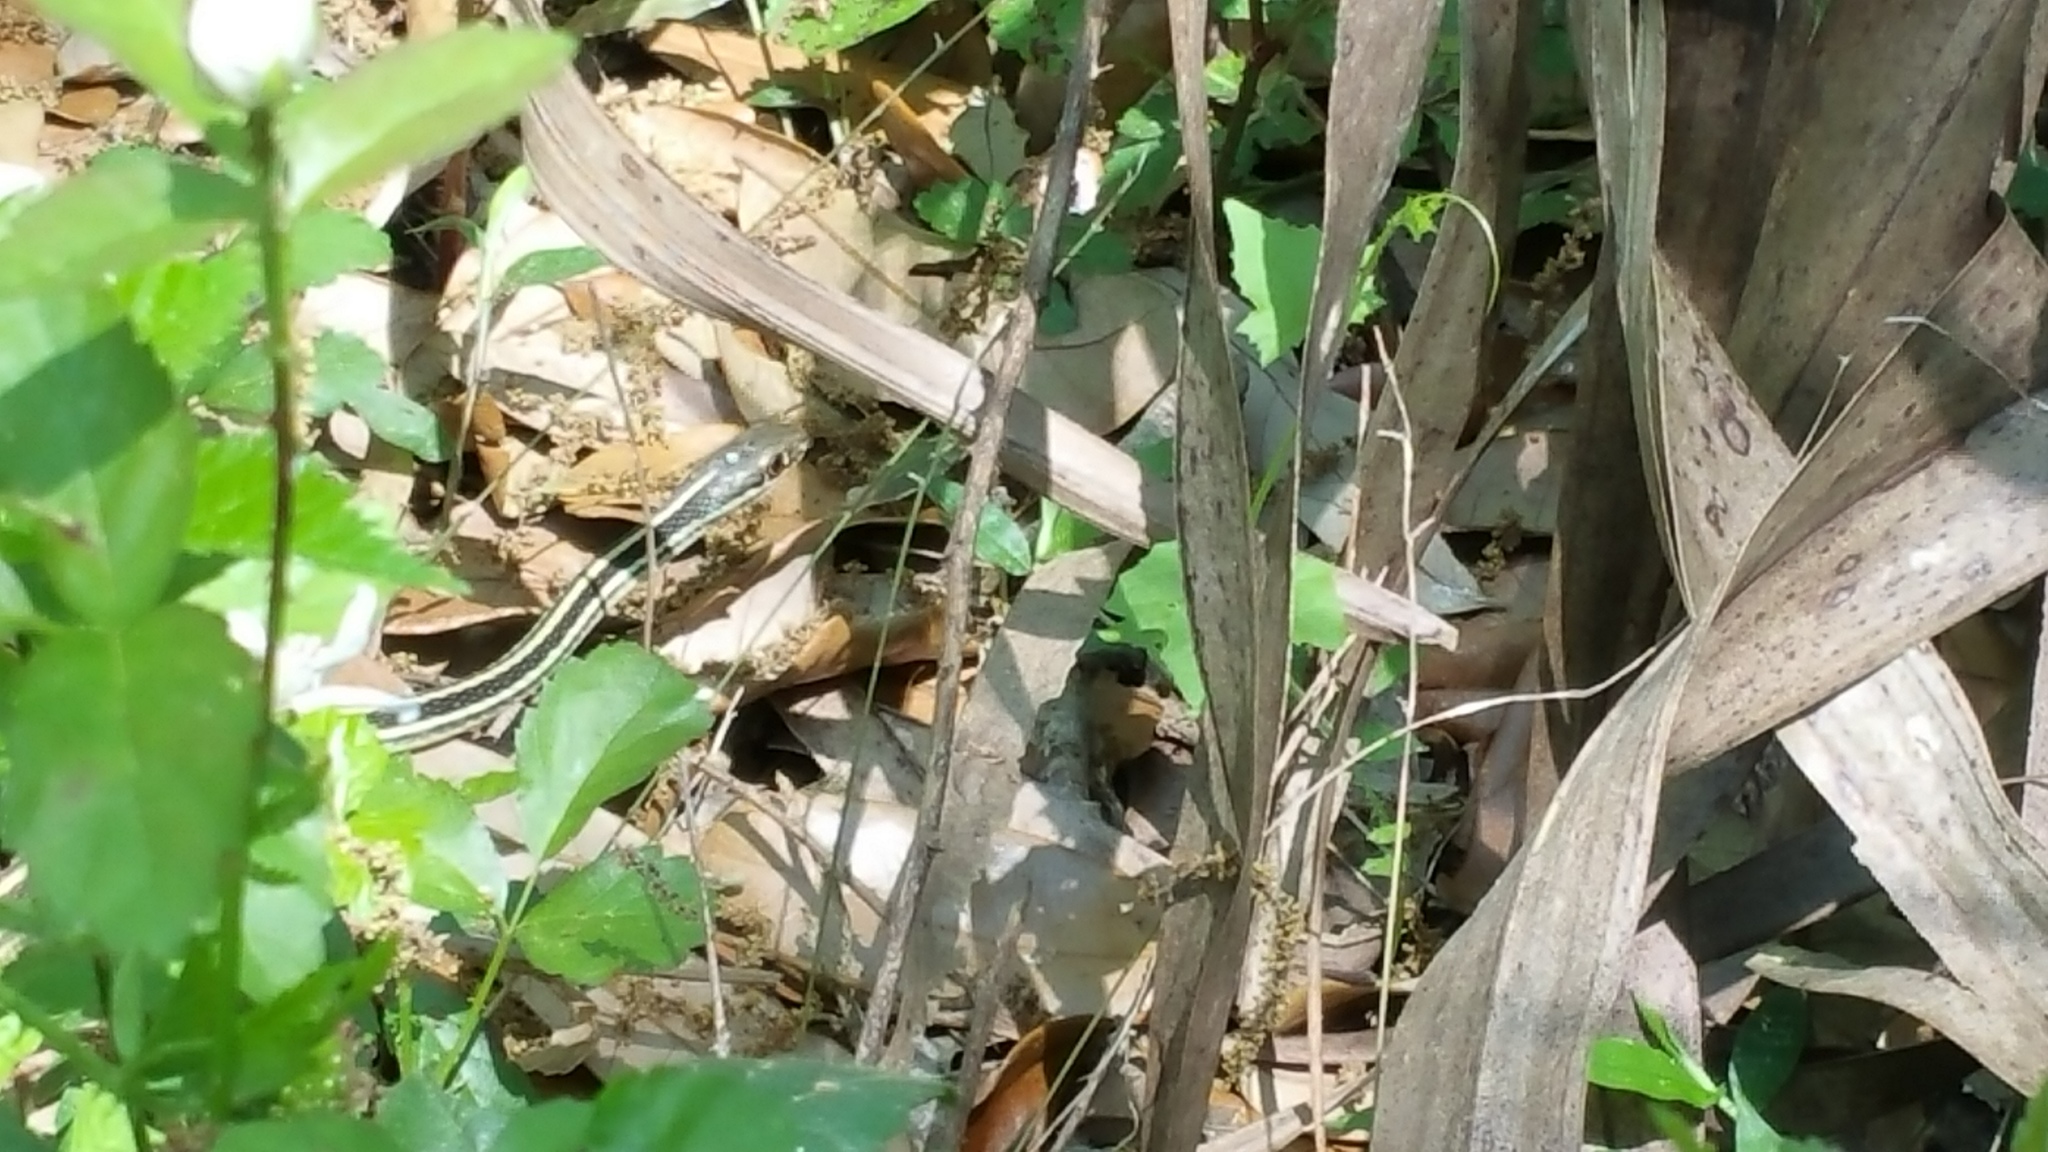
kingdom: Animalia
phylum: Chordata
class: Squamata
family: Colubridae
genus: Thamnophis
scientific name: Thamnophis proximus
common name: Western ribbon snake
